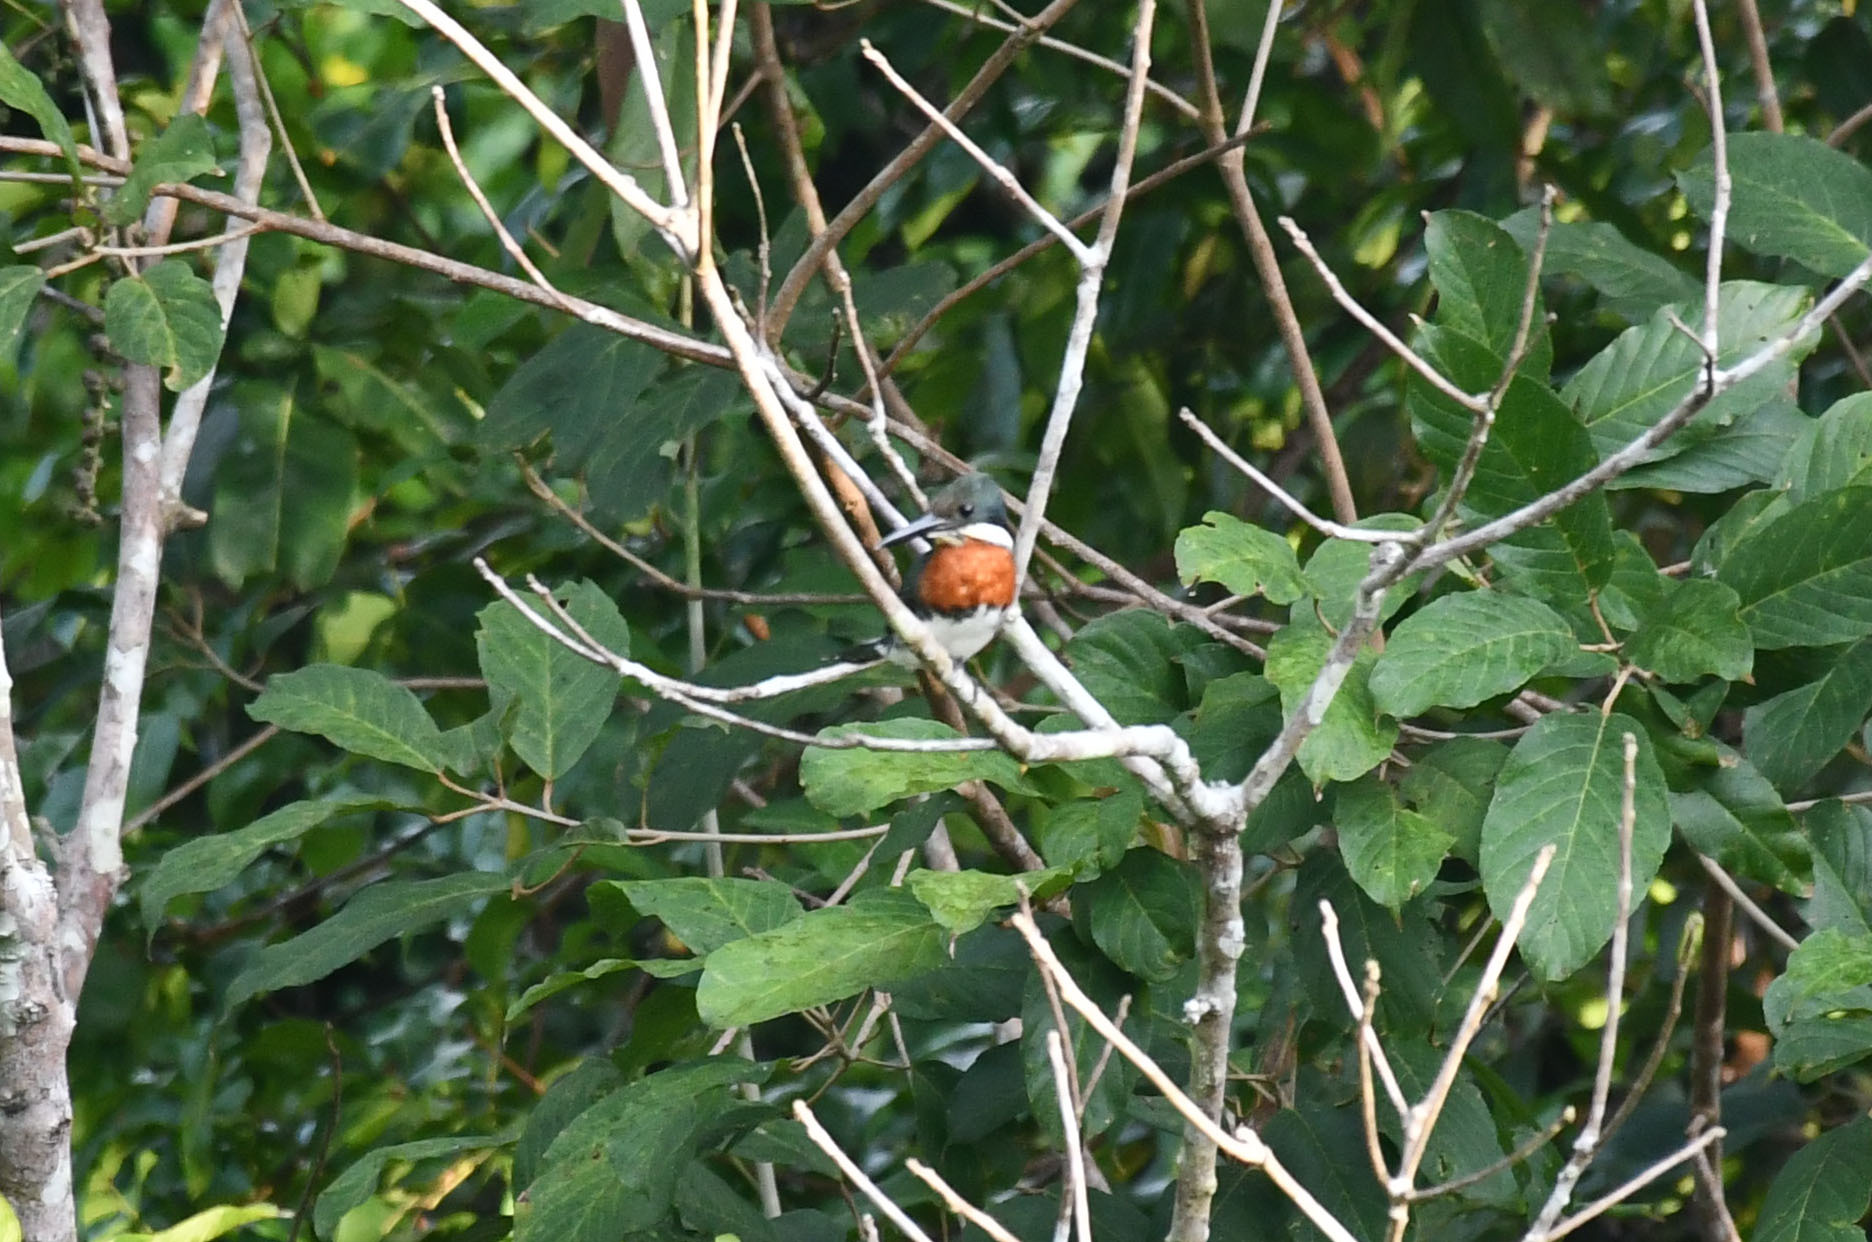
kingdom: Animalia
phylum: Chordata
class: Aves
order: Coraciiformes
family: Alcedinidae
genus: Chloroceryle
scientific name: Chloroceryle americana
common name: Green kingfisher
